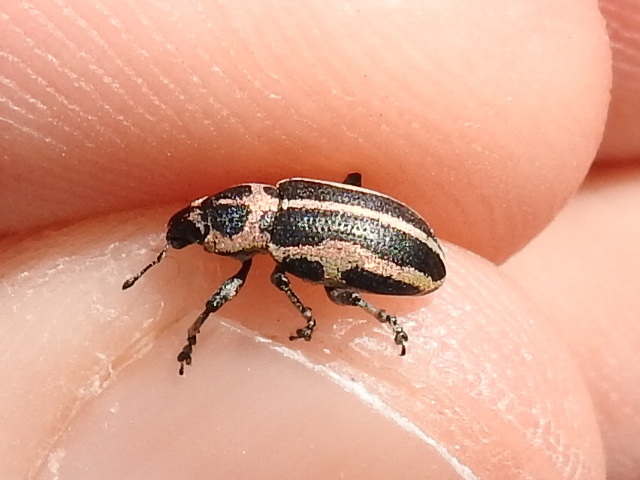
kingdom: Animalia
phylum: Arthropoda
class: Insecta
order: Coleoptera
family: Curculionidae
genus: Eudiagogus
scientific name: Eudiagogus pulcher
